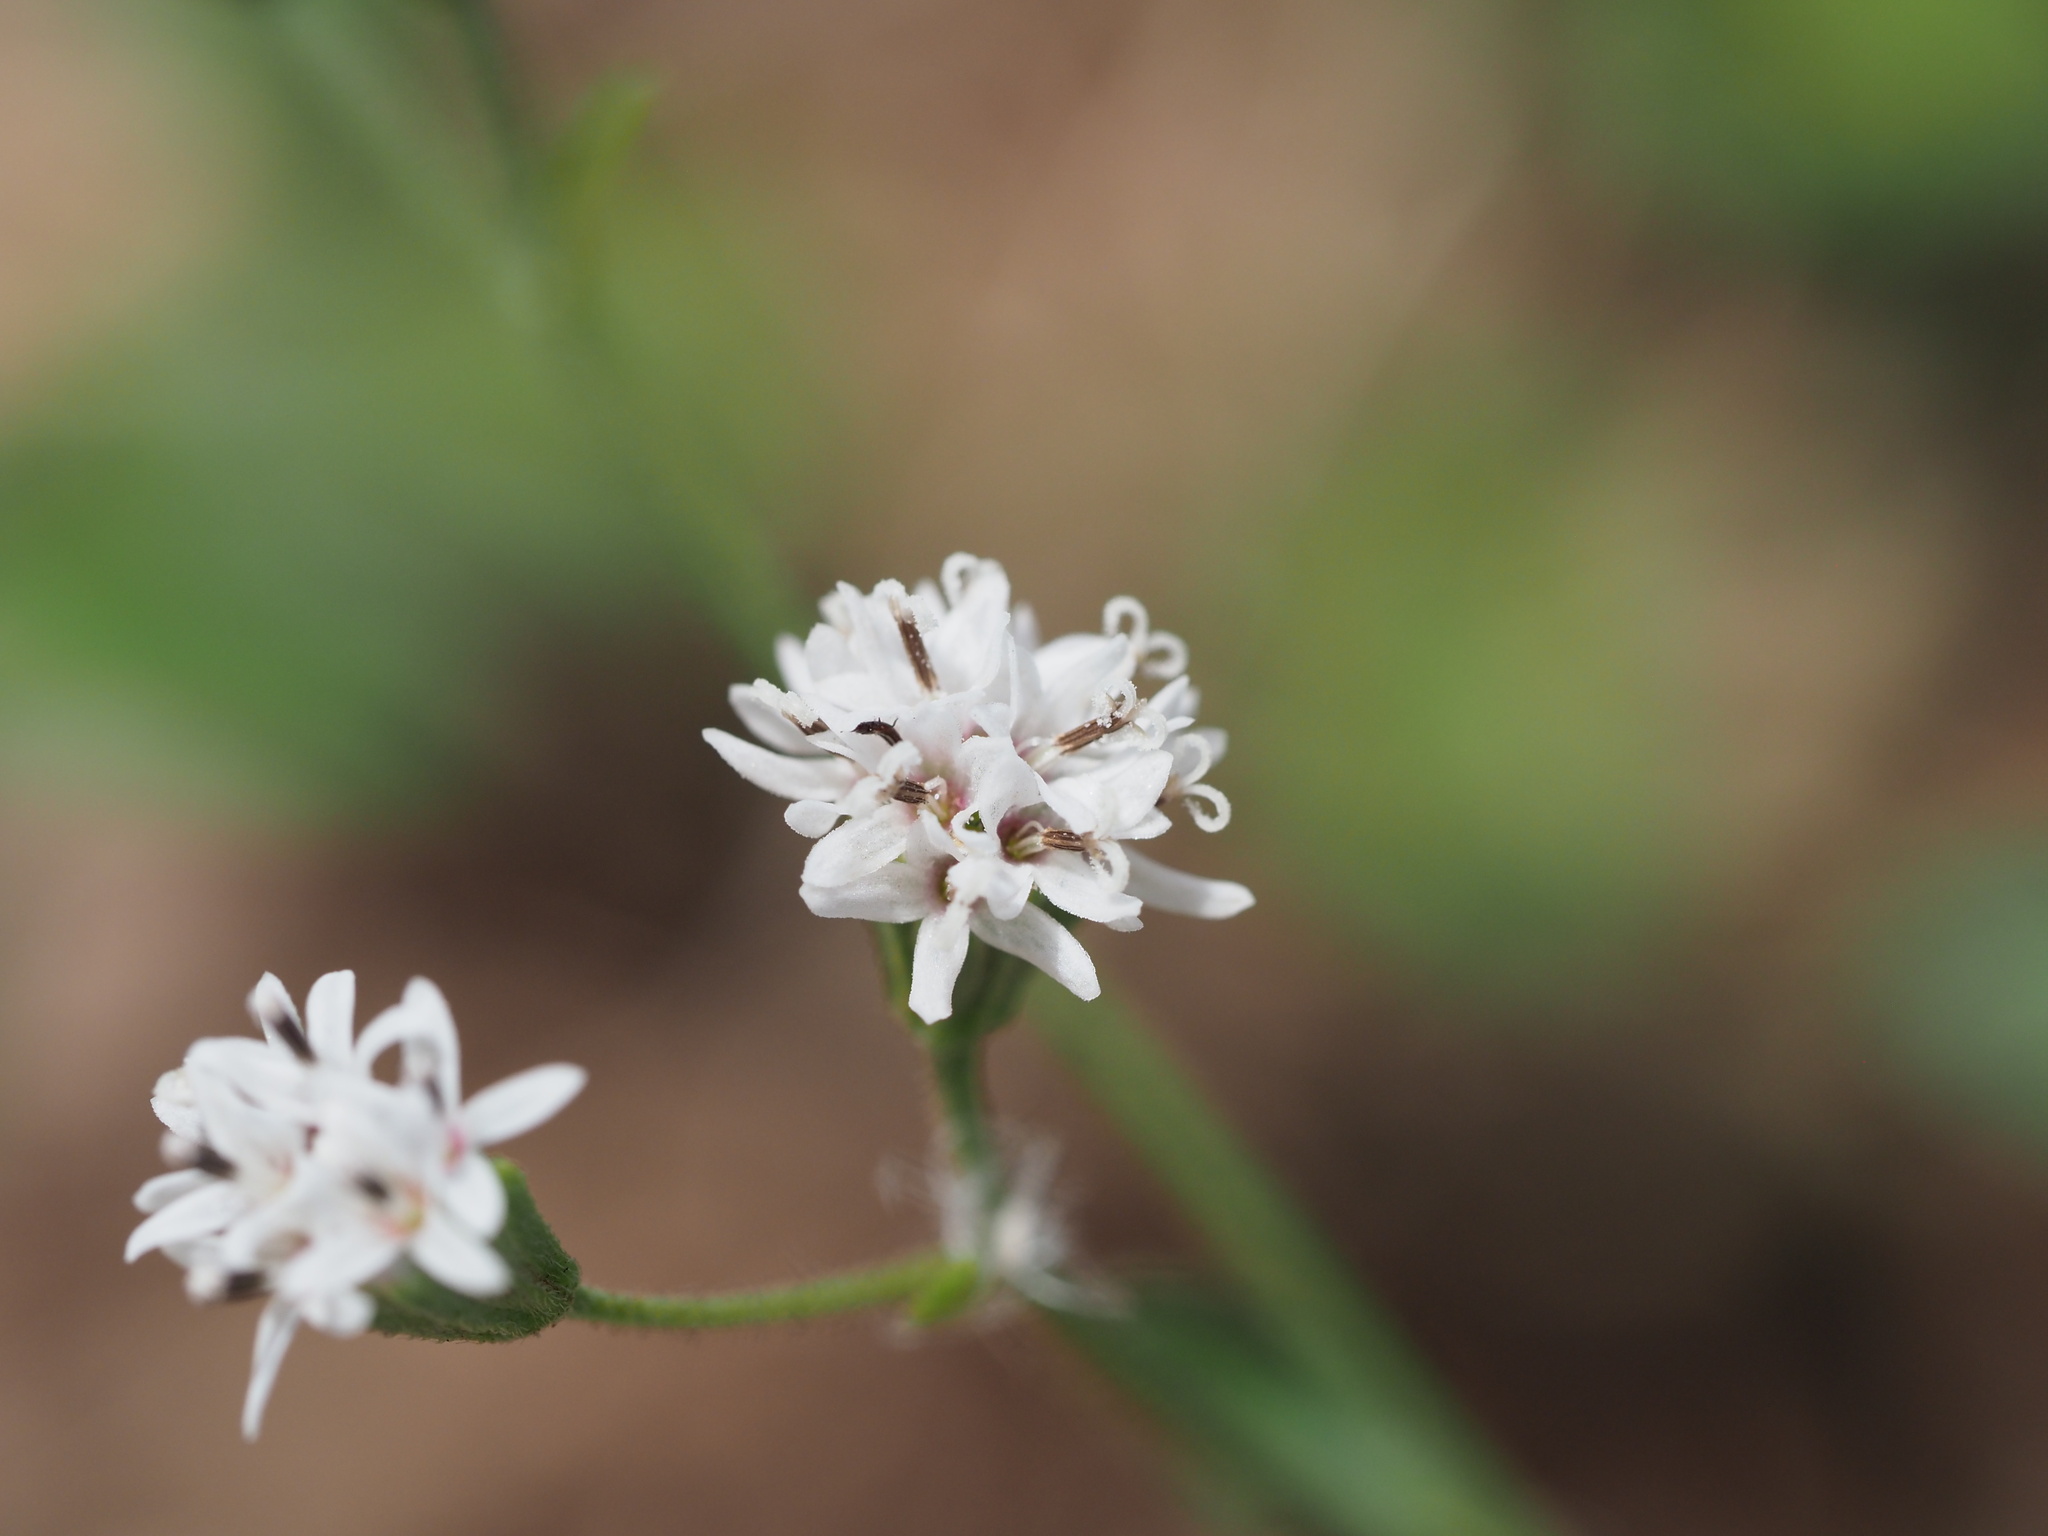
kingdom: Plantae
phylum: Tracheophyta
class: Magnoliopsida
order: Asterales
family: Asteraceae
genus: Florestina
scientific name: Florestina tripteris
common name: Sticky florestina
